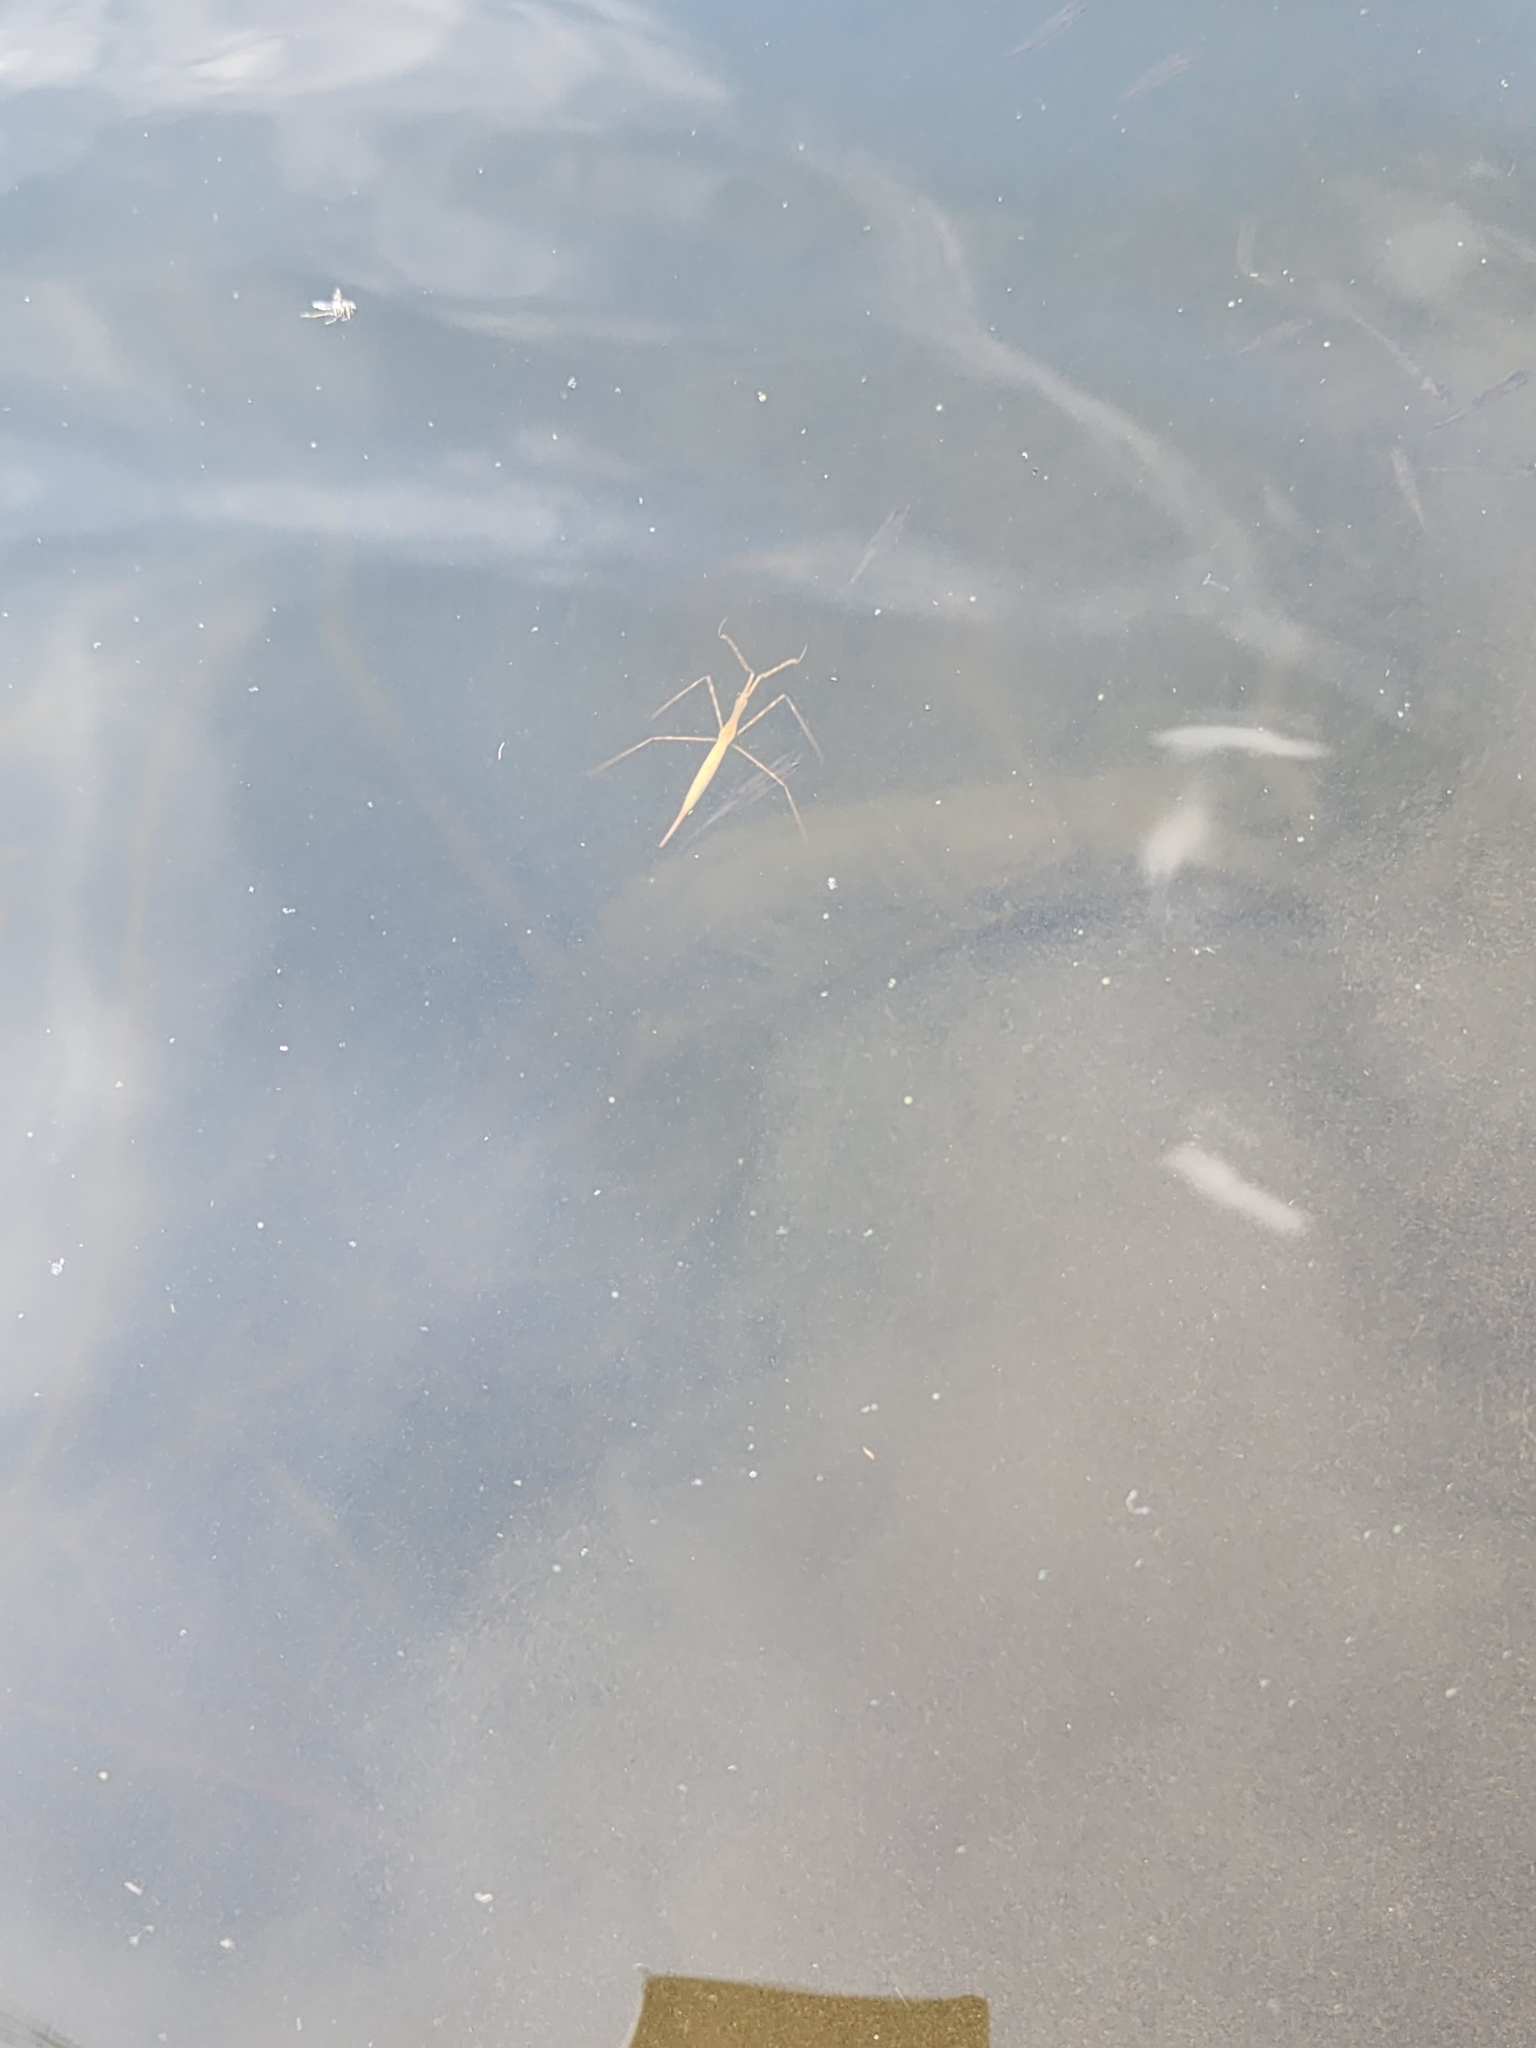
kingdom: Animalia
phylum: Arthropoda
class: Insecta
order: Hemiptera
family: Nepidae
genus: Ranatra
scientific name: Ranatra fusca
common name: Brown waterscorpion
